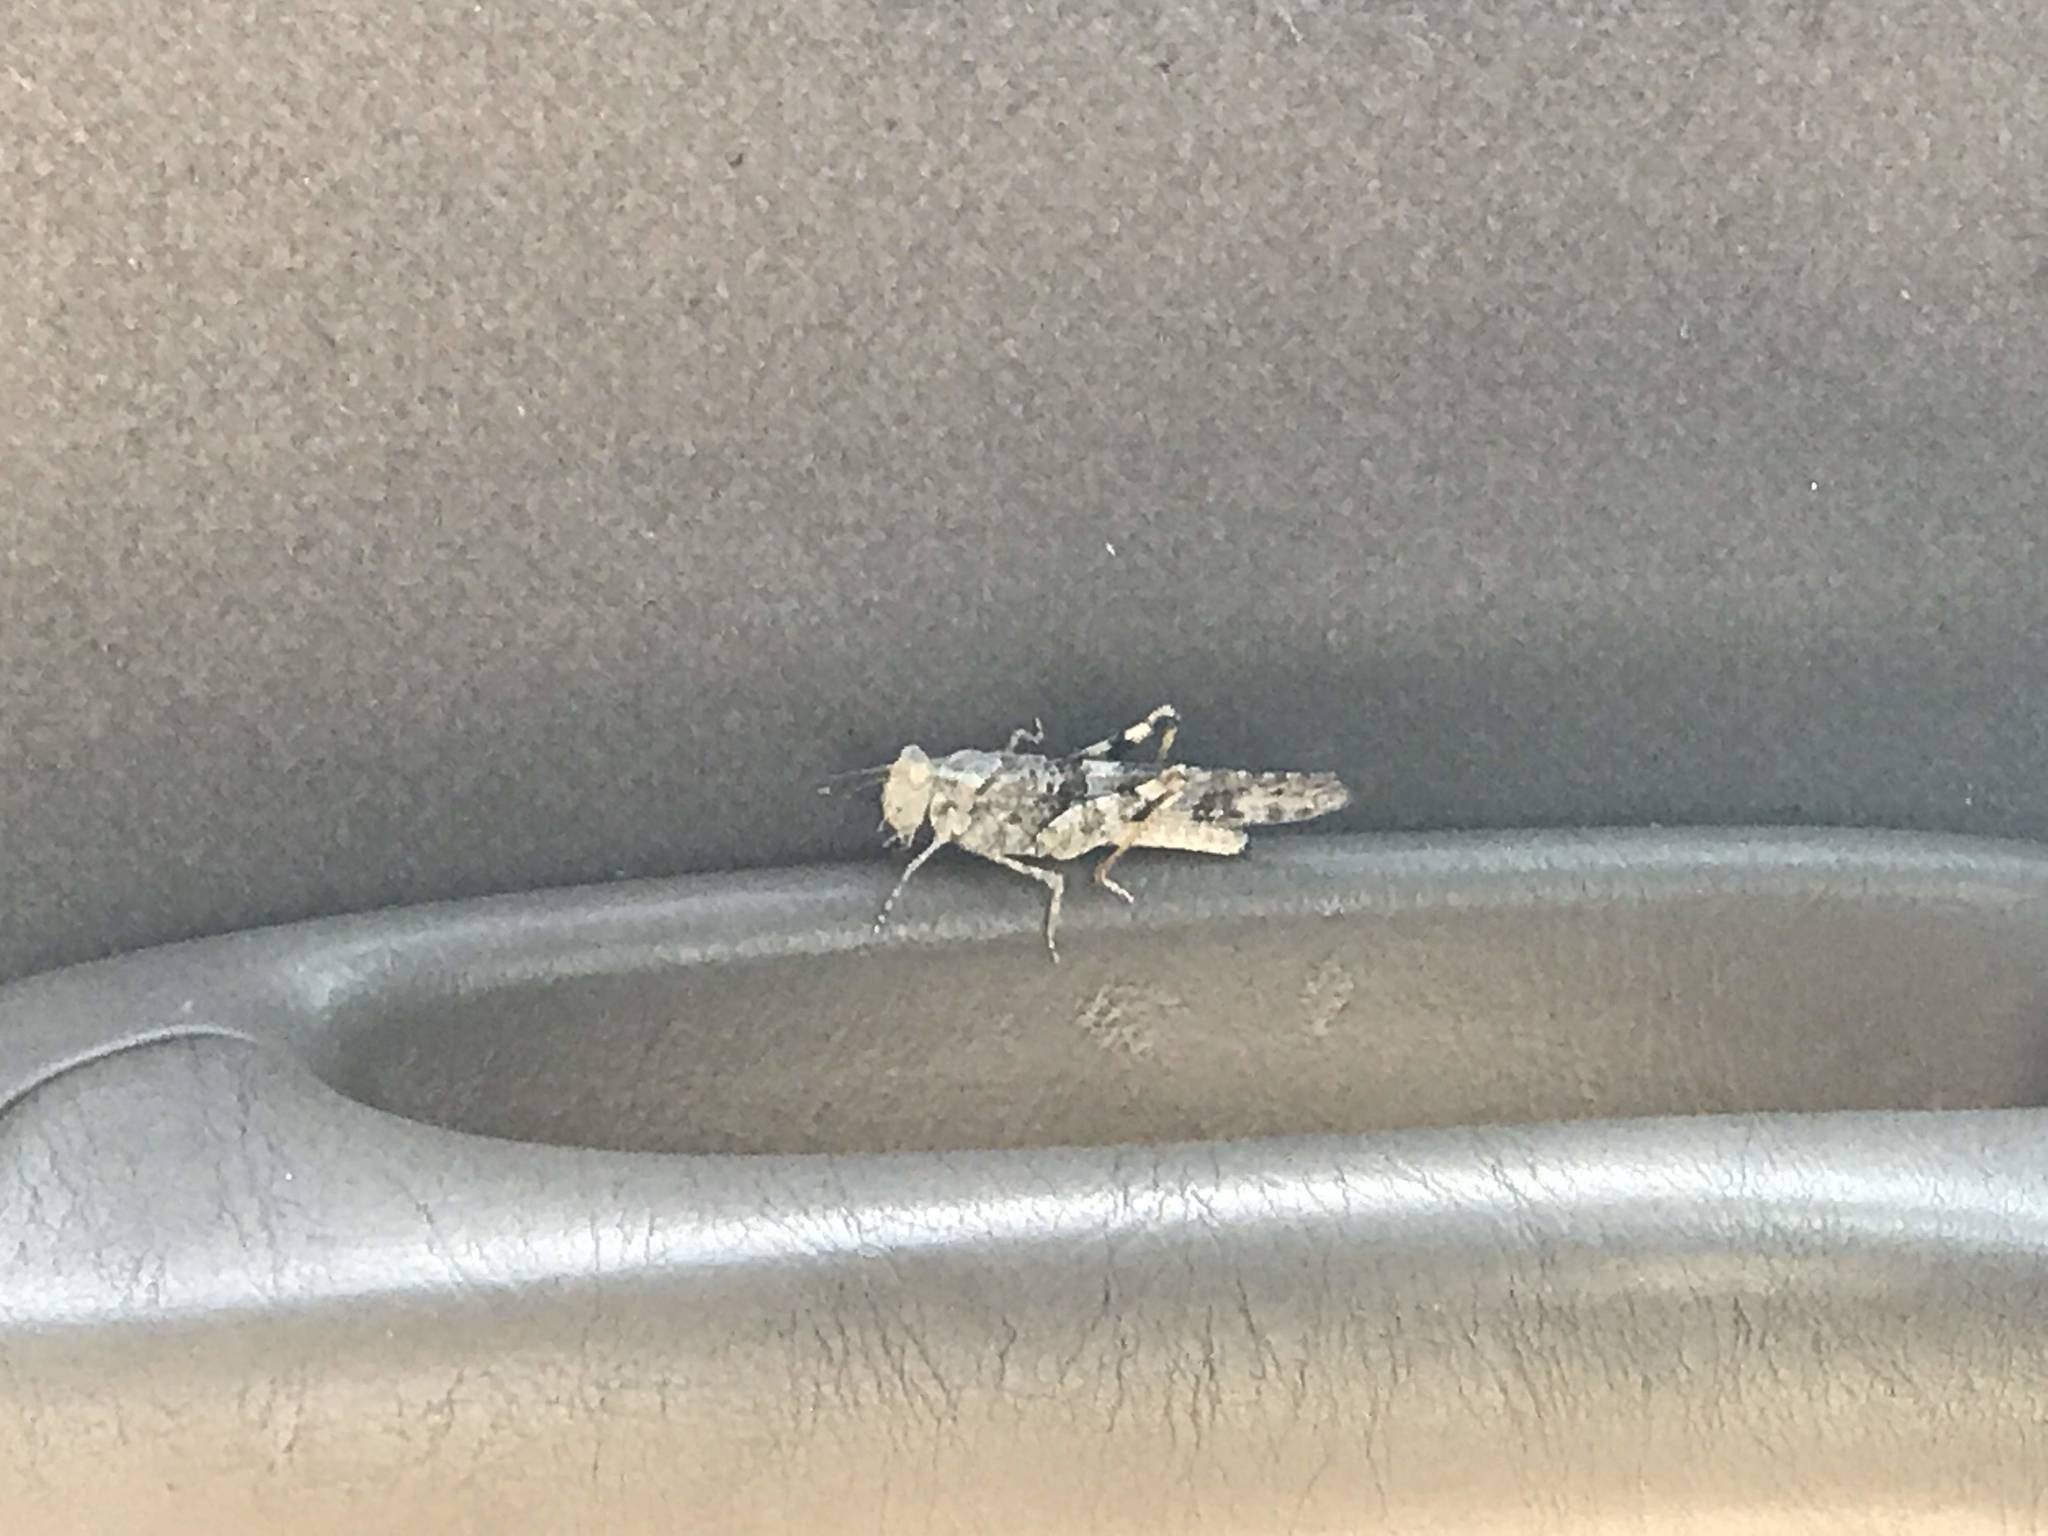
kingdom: Animalia
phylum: Arthropoda
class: Insecta
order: Orthoptera
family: Acrididae
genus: Trimerotropis
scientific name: Trimerotropis pallidipennis
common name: Pallid-winged grasshopper
